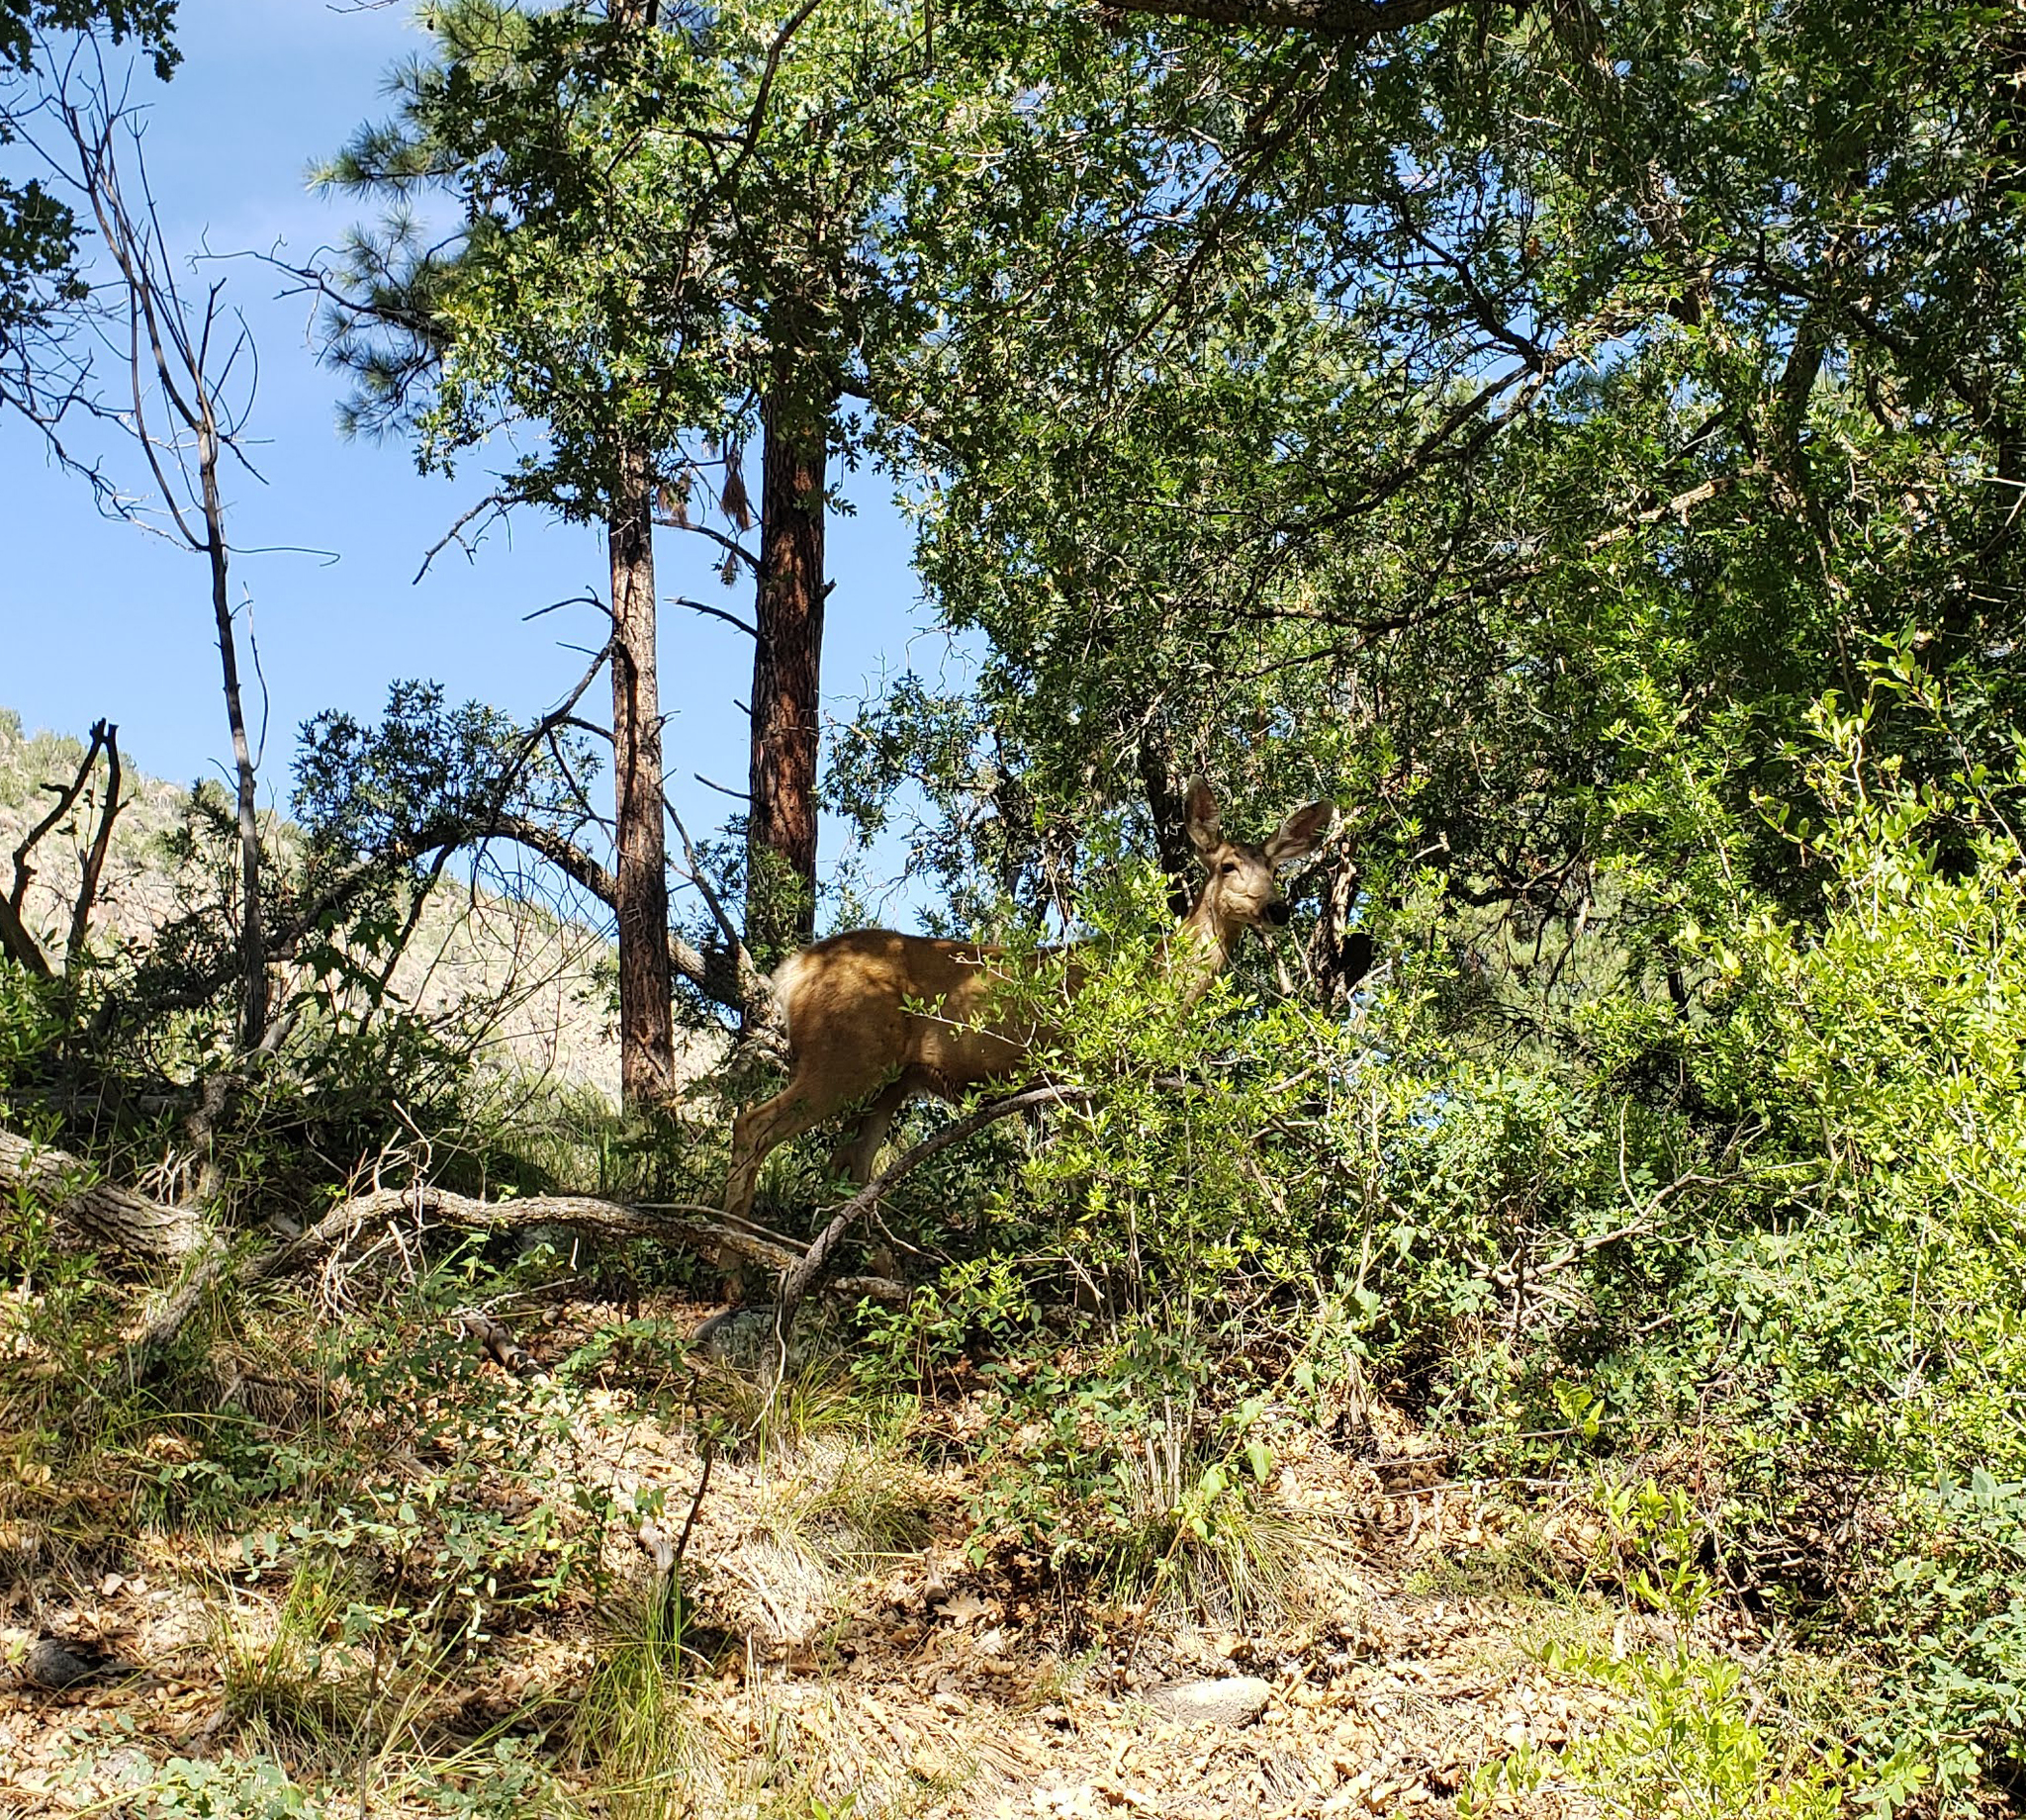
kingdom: Animalia
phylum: Chordata
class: Mammalia
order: Artiodactyla
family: Cervidae
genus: Odocoileus
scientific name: Odocoileus hemionus
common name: Mule deer
